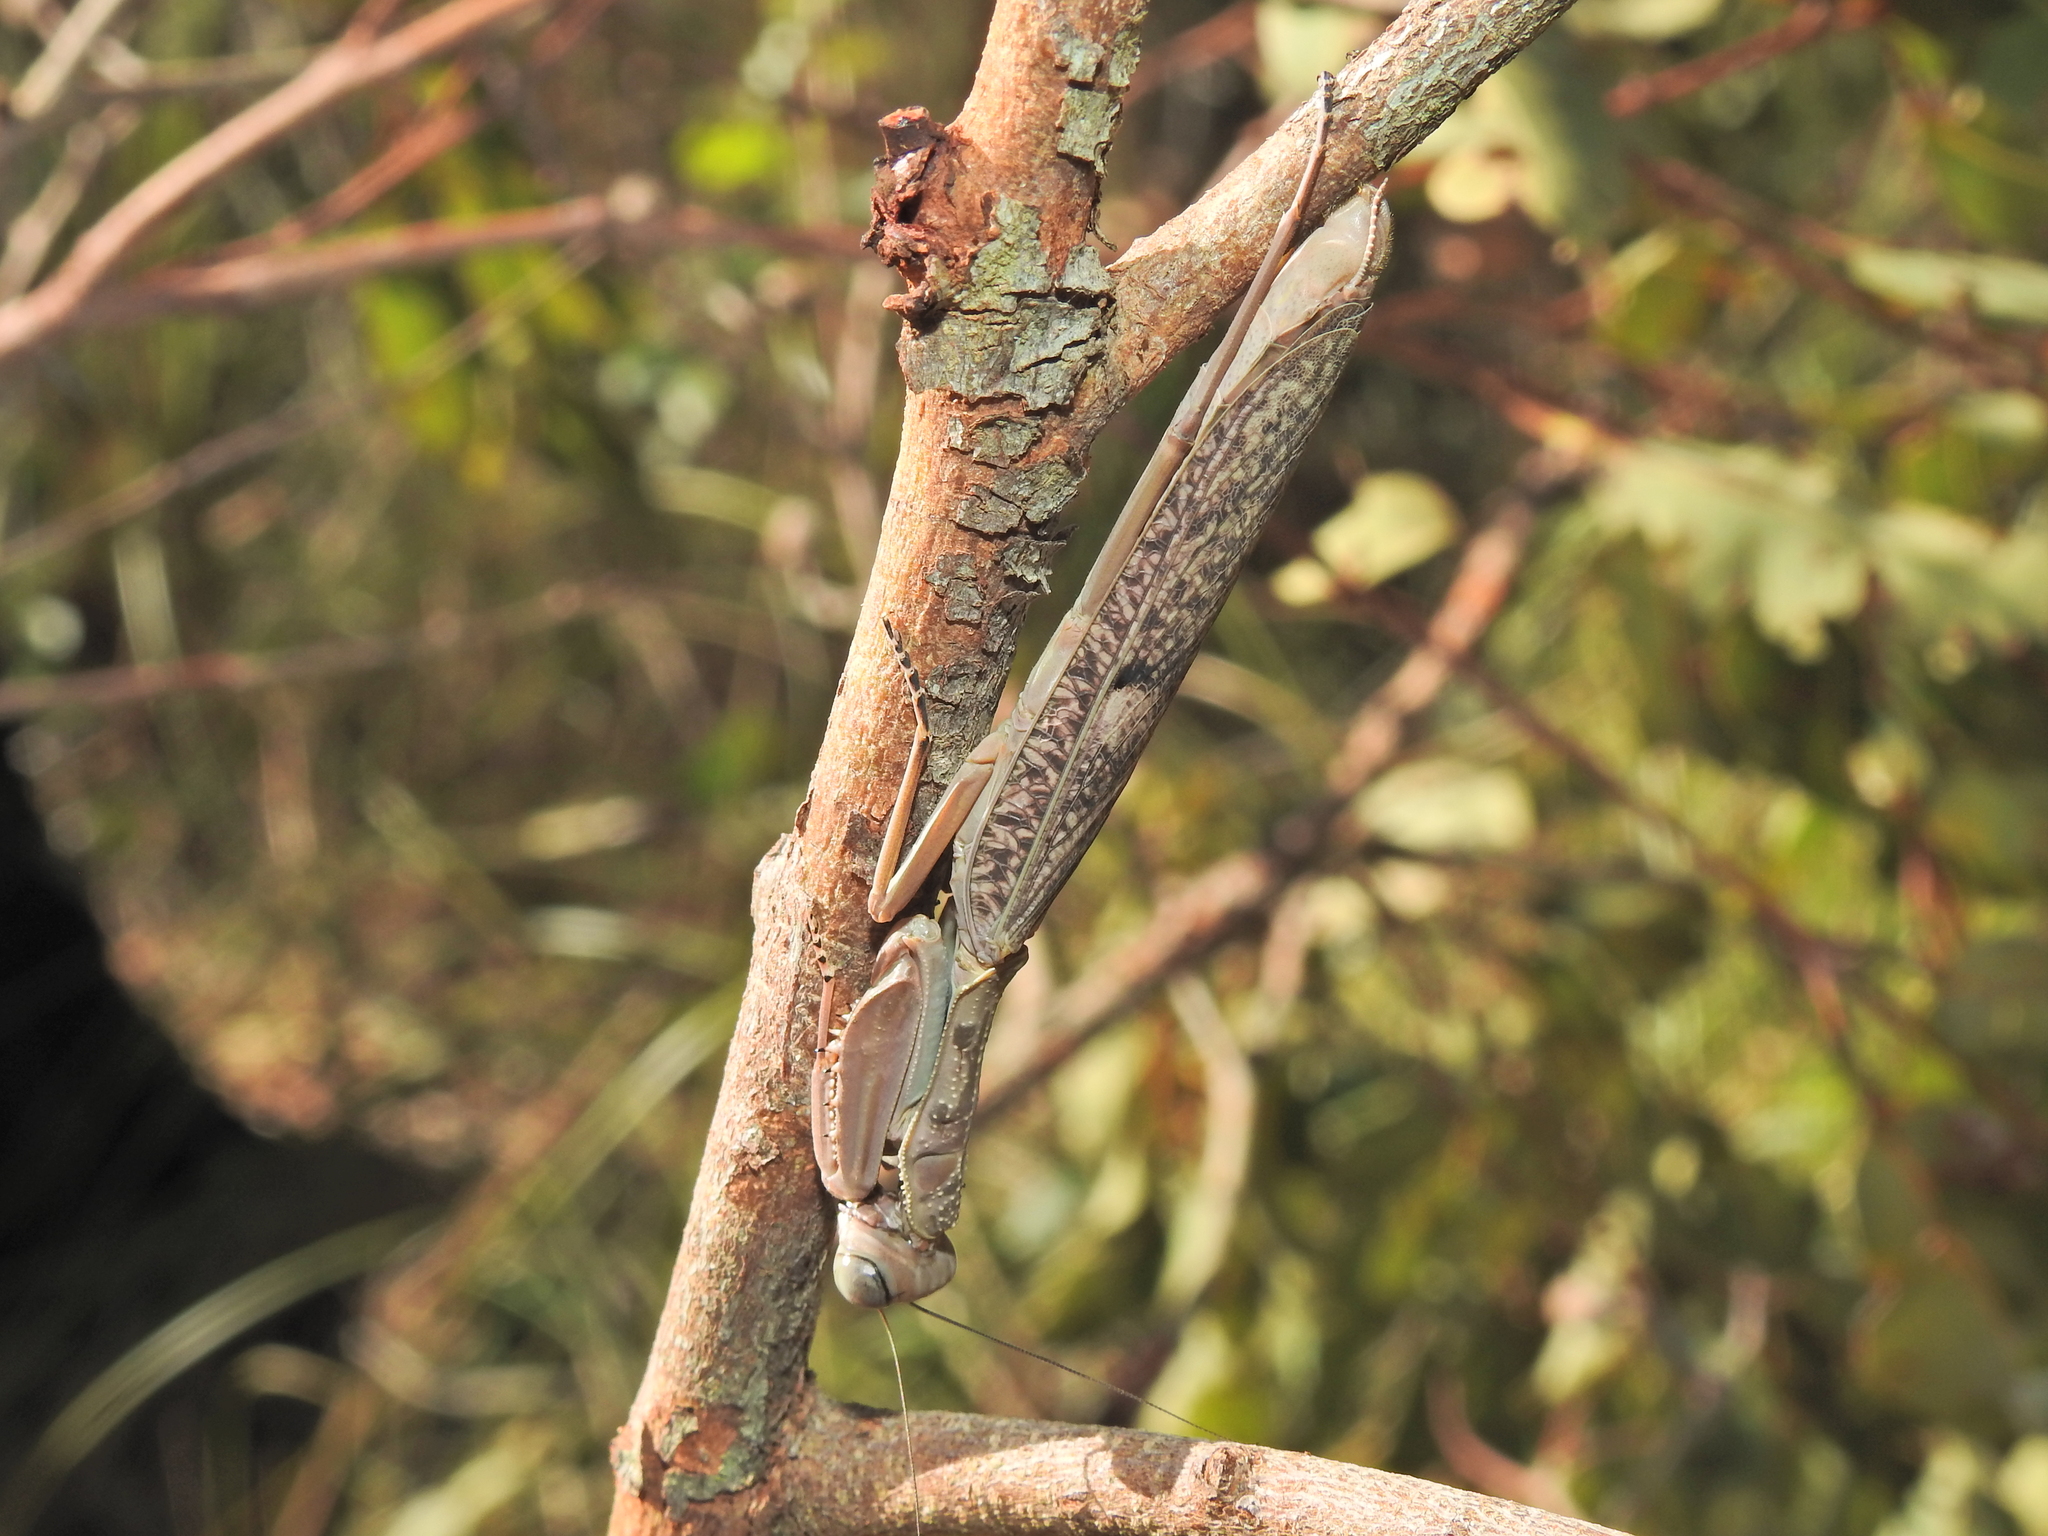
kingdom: Animalia
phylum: Arthropoda
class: Insecta
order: Mantodea
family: Mantidae
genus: Sphodropoda
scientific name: Sphodropoda tristis
